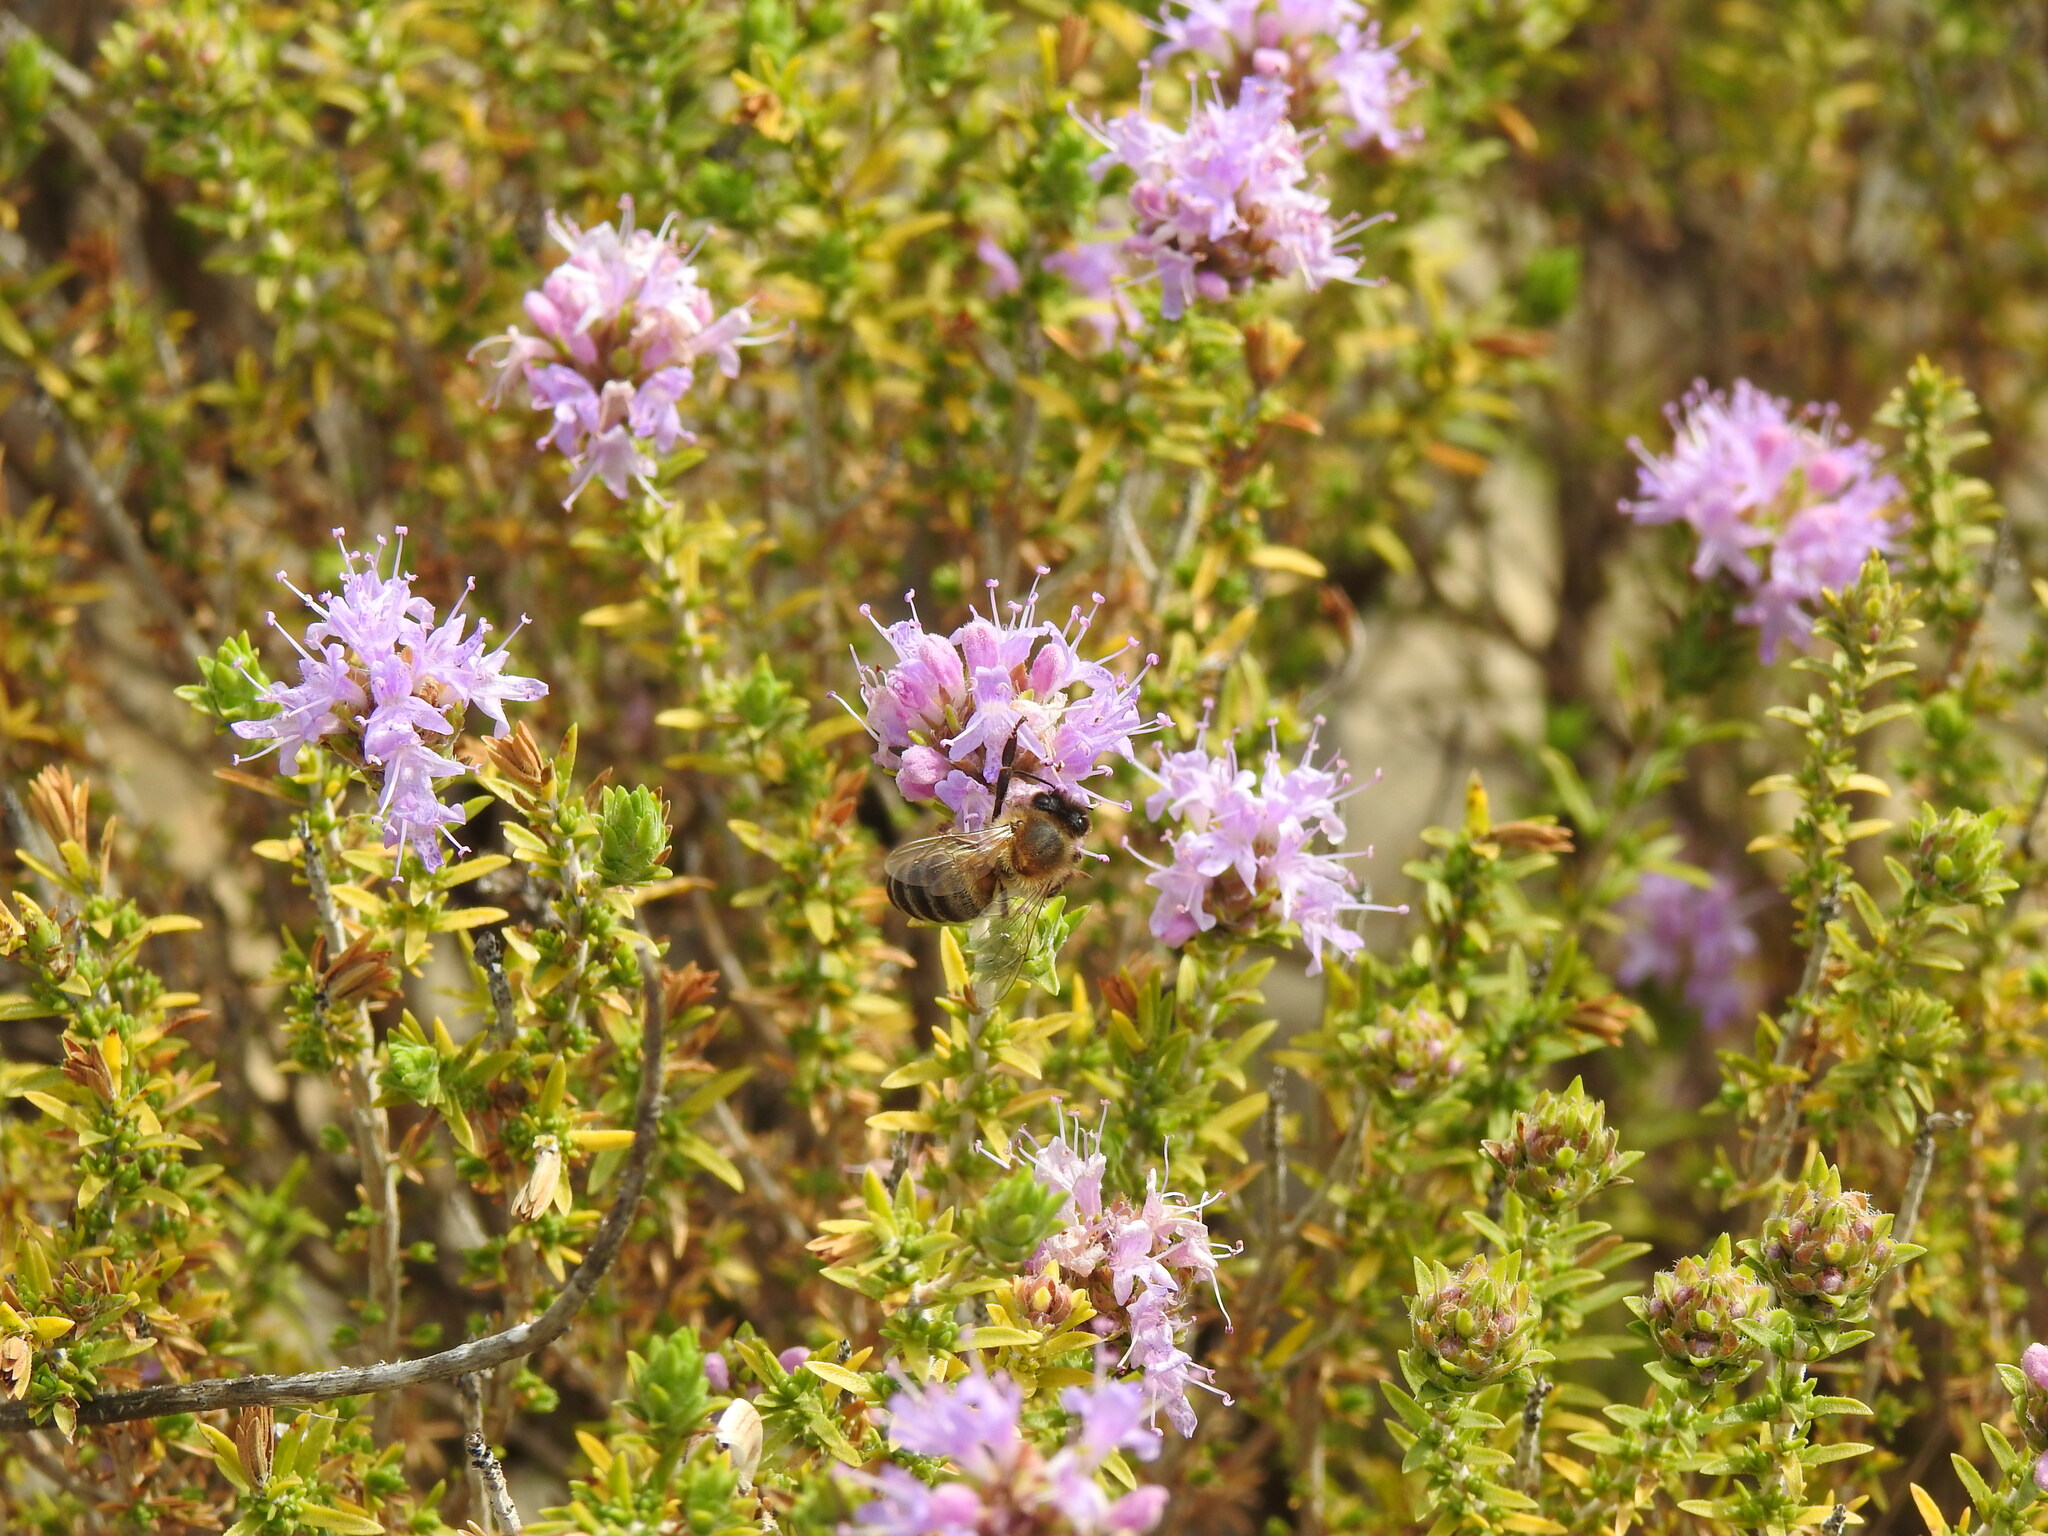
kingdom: Animalia
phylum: Arthropoda
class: Insecta
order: Hymenoptera
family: Apidae
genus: Apis
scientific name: Apis mellifera
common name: Honey bee
